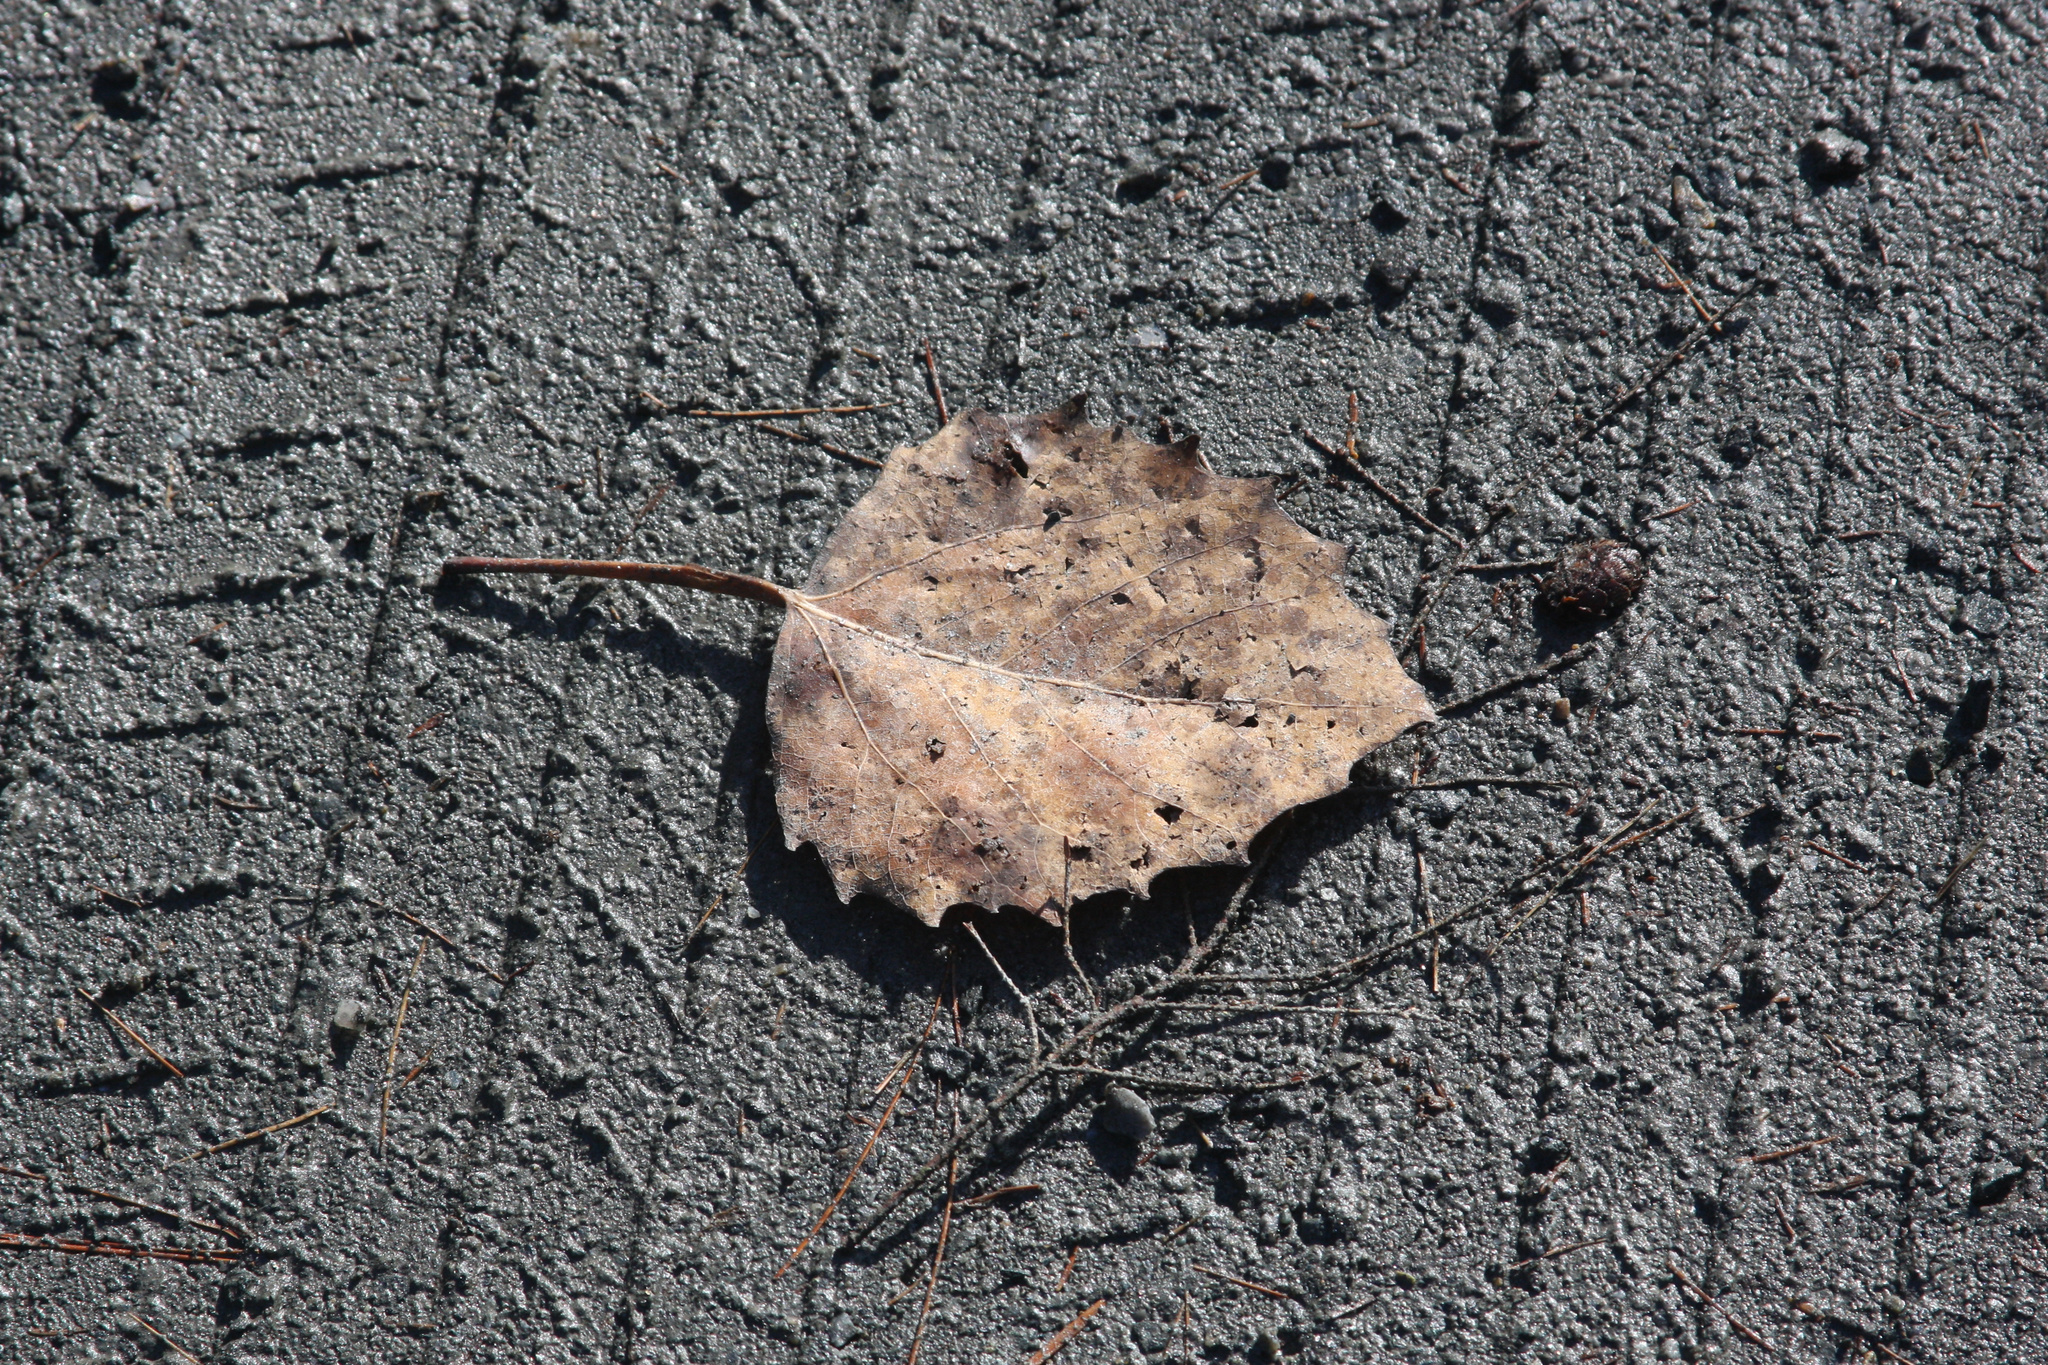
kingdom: Plantae
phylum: Tracheophyta
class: Magnoliopsida
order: Malpighiales
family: Salicaceae
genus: Populus
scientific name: Populus grandidentata
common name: Bigtooth aspen
